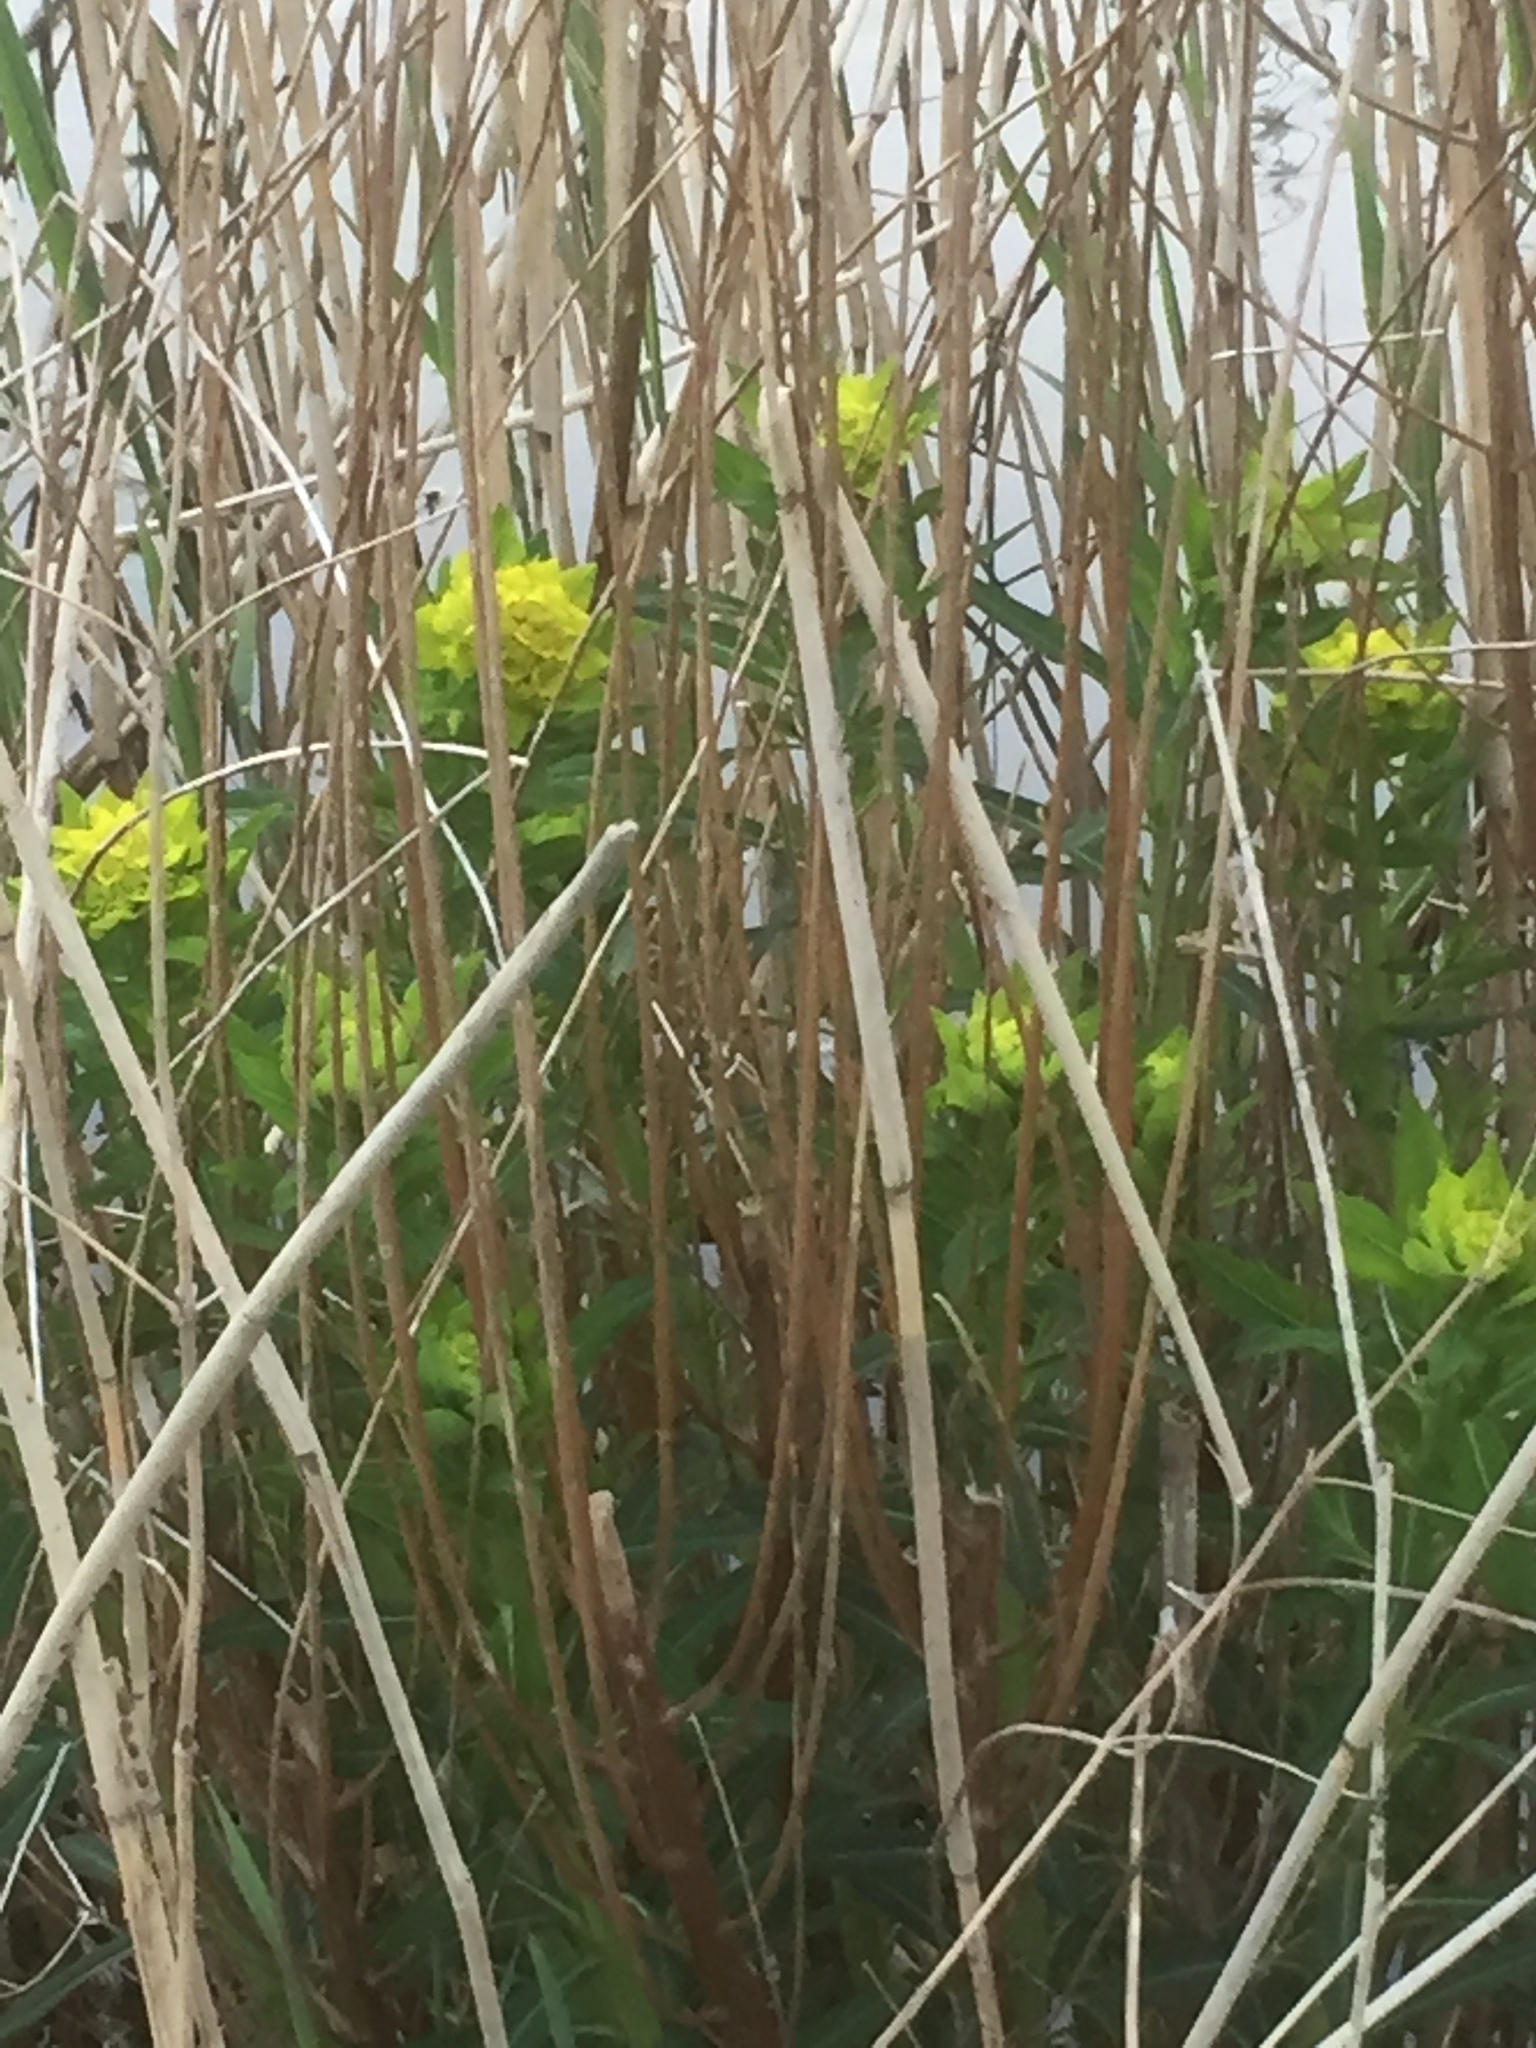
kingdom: Plantae
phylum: Tracheophyta
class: Magnoliopsida
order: Malpighiales
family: Euphorbiaceae
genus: Euphorbia
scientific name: Euphorbia palustris
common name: Marsh spurge
